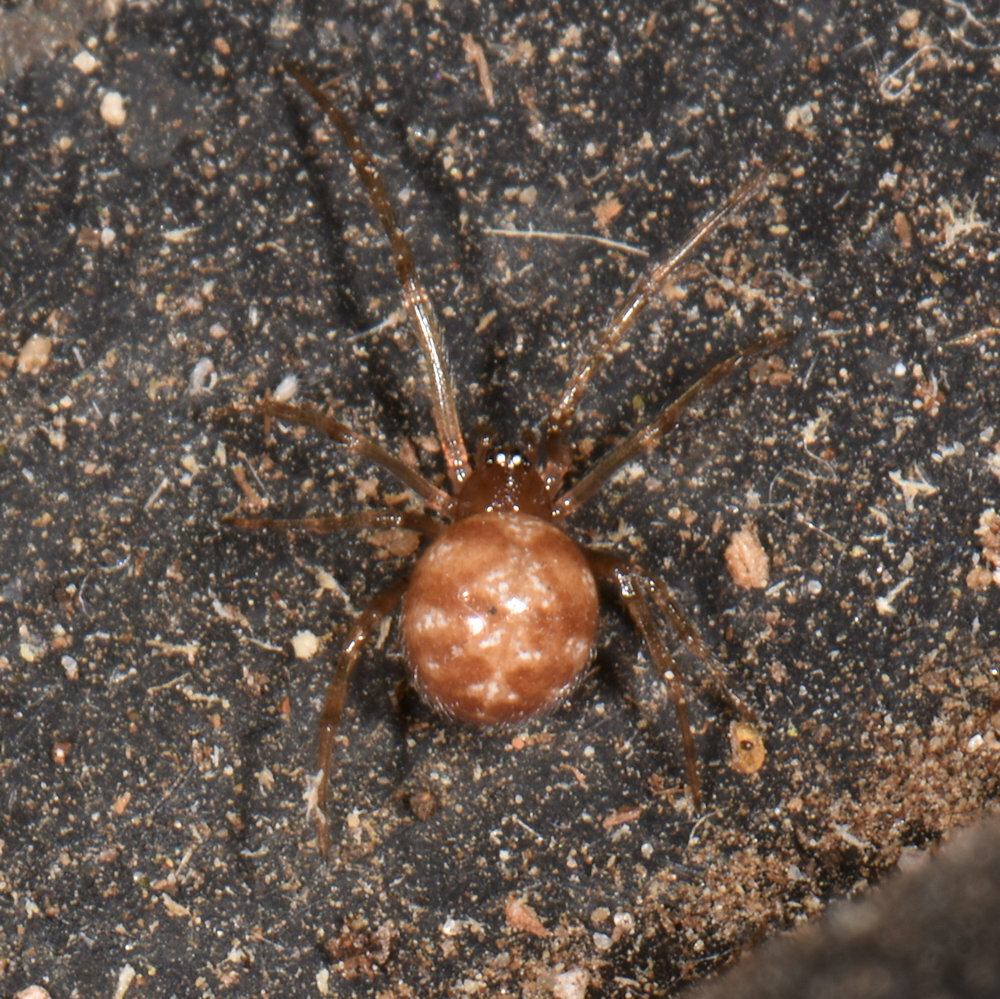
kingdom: Animalia
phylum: Arthropoda
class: Arachnida
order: Araneae
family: Theridiidae
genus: Steatoda
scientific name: Steatoda triangulosa
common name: Triangulate bud spider
